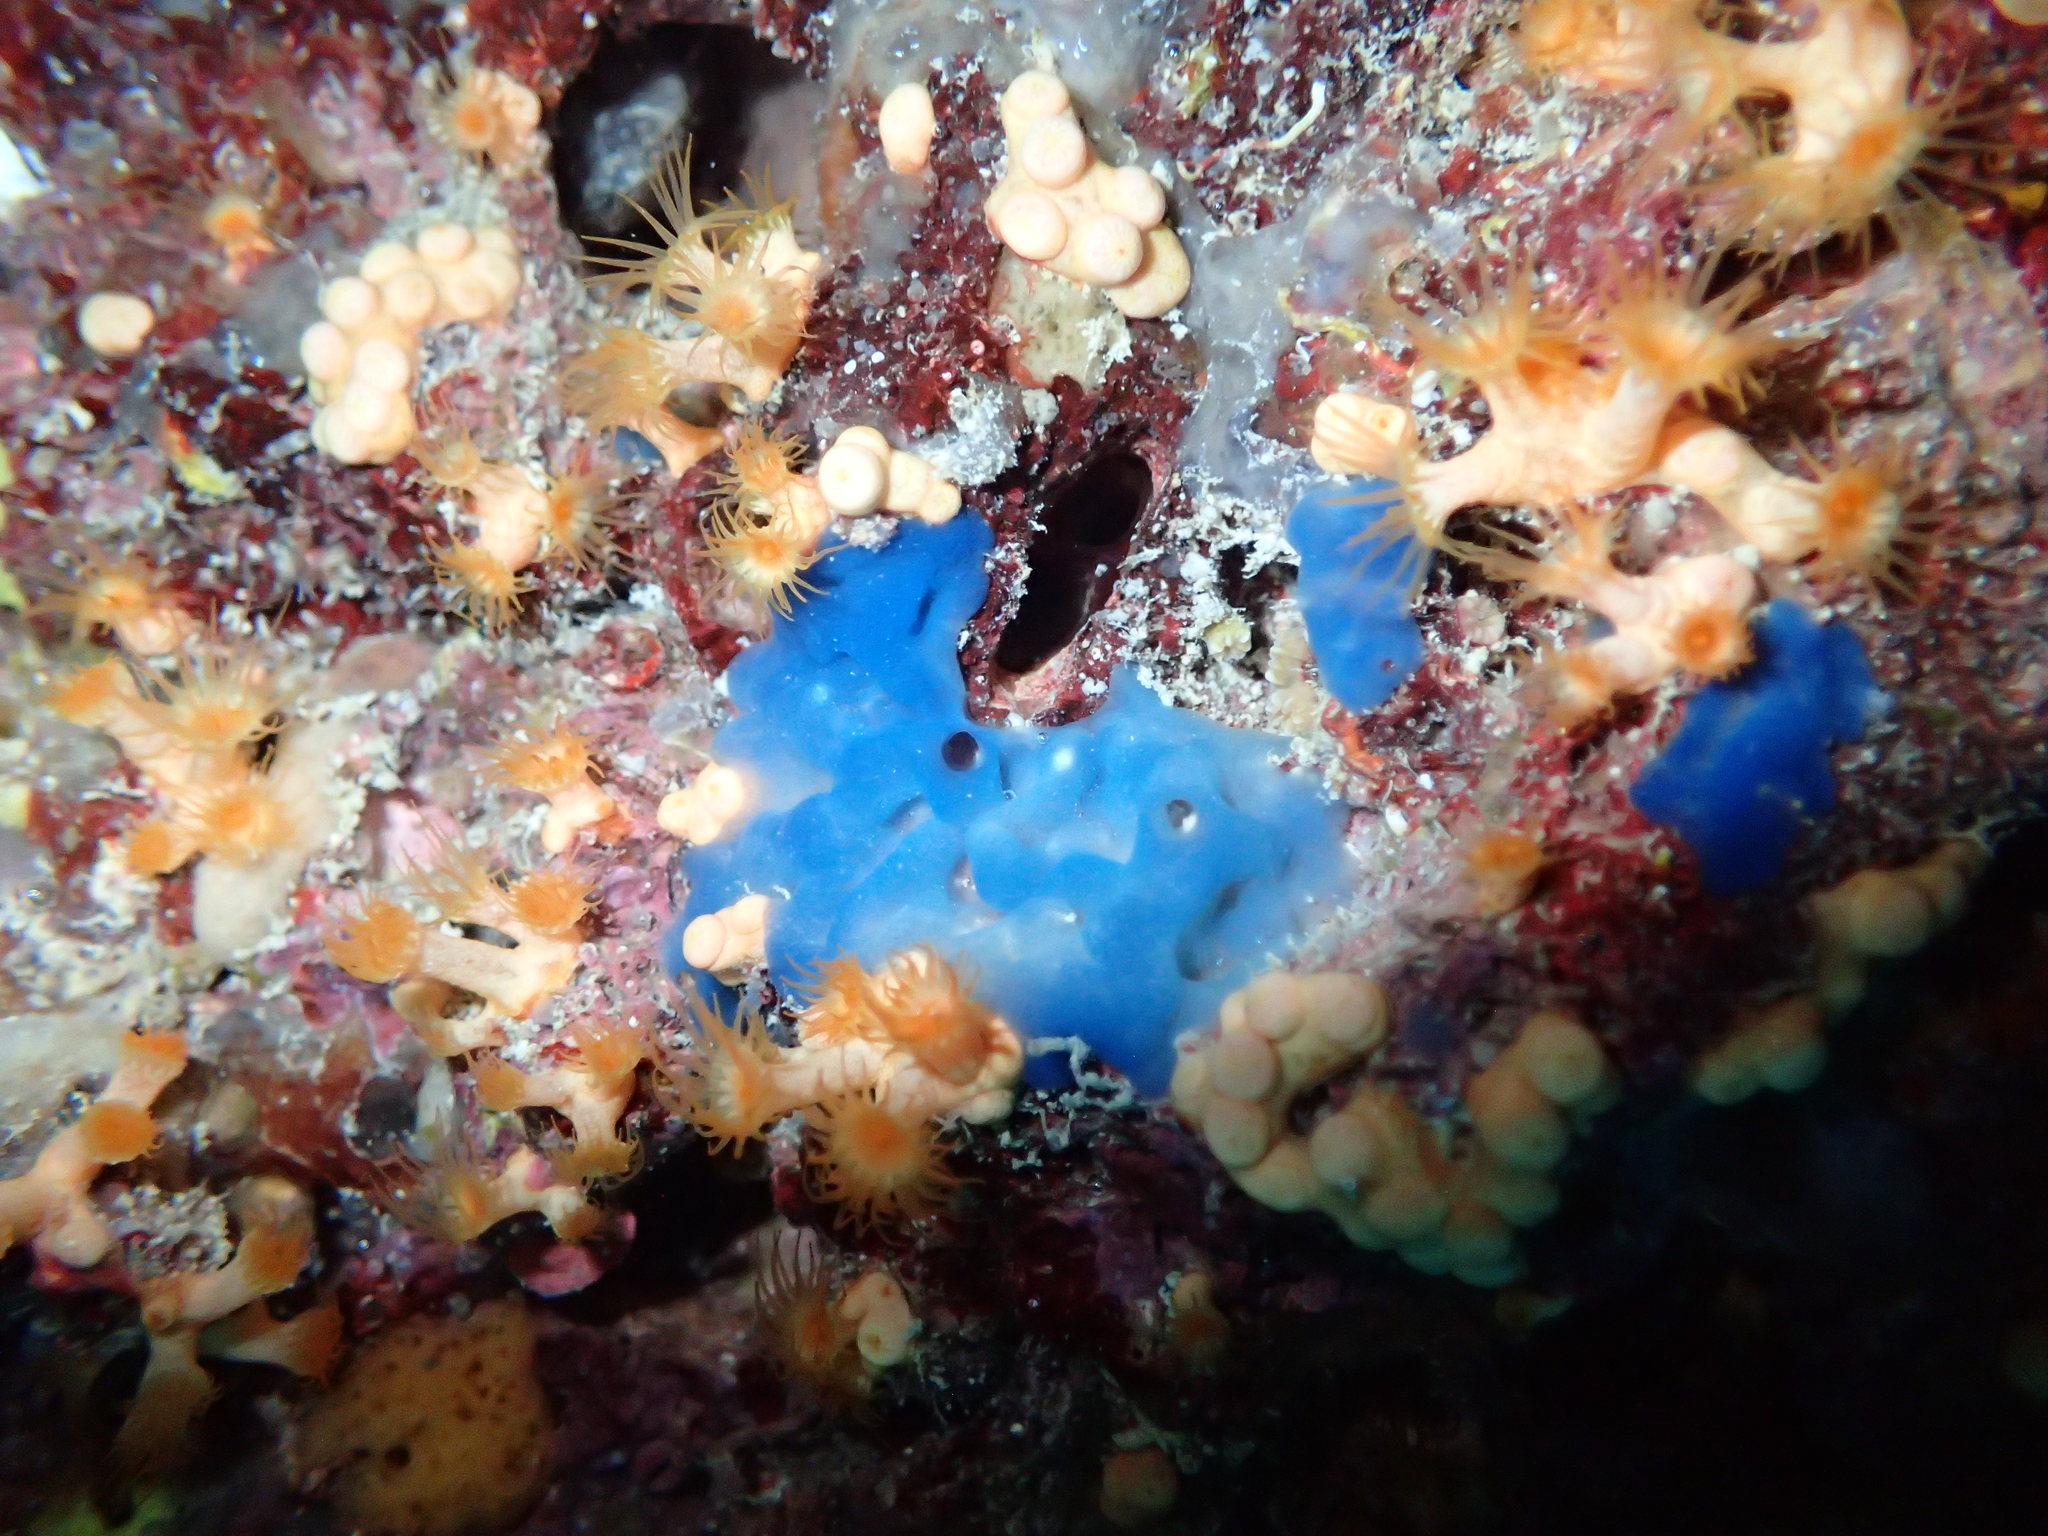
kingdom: Animalia
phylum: Porifera
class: Homoscleromorpha
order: Homosclerophorida
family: Oscarellidae
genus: Oscarella
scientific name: Oscarella lobularis
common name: Flesh sponge
